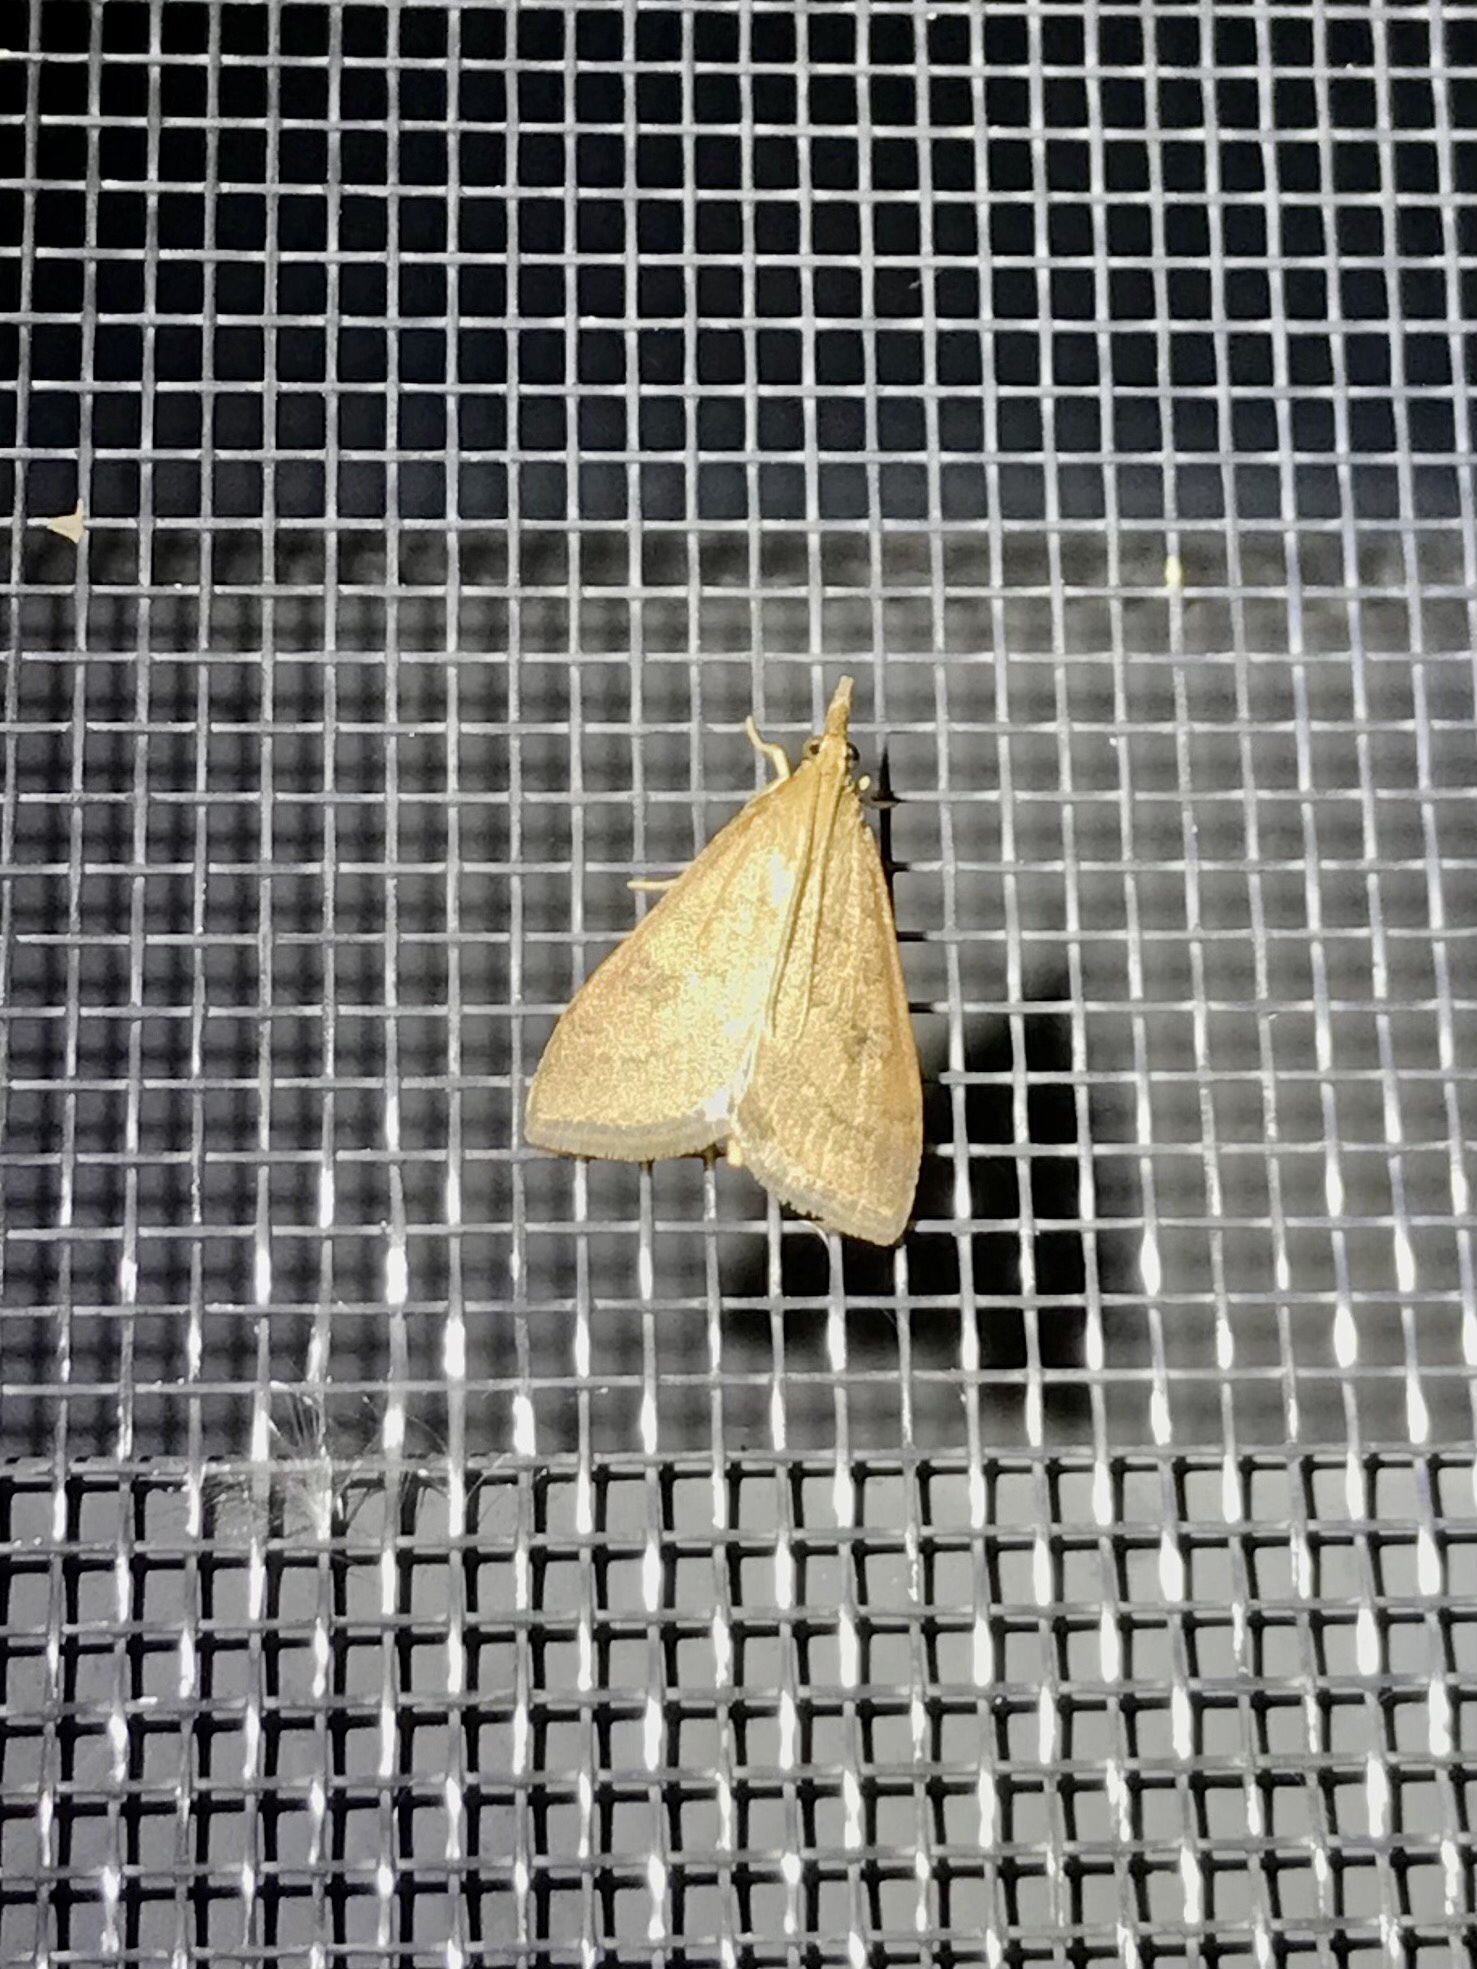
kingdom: Animalia
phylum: Arthropoda
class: Insecta
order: Lepidoptera
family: Crambidae
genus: Udea
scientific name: Udea rubigalis
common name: Celery leaftier moth
